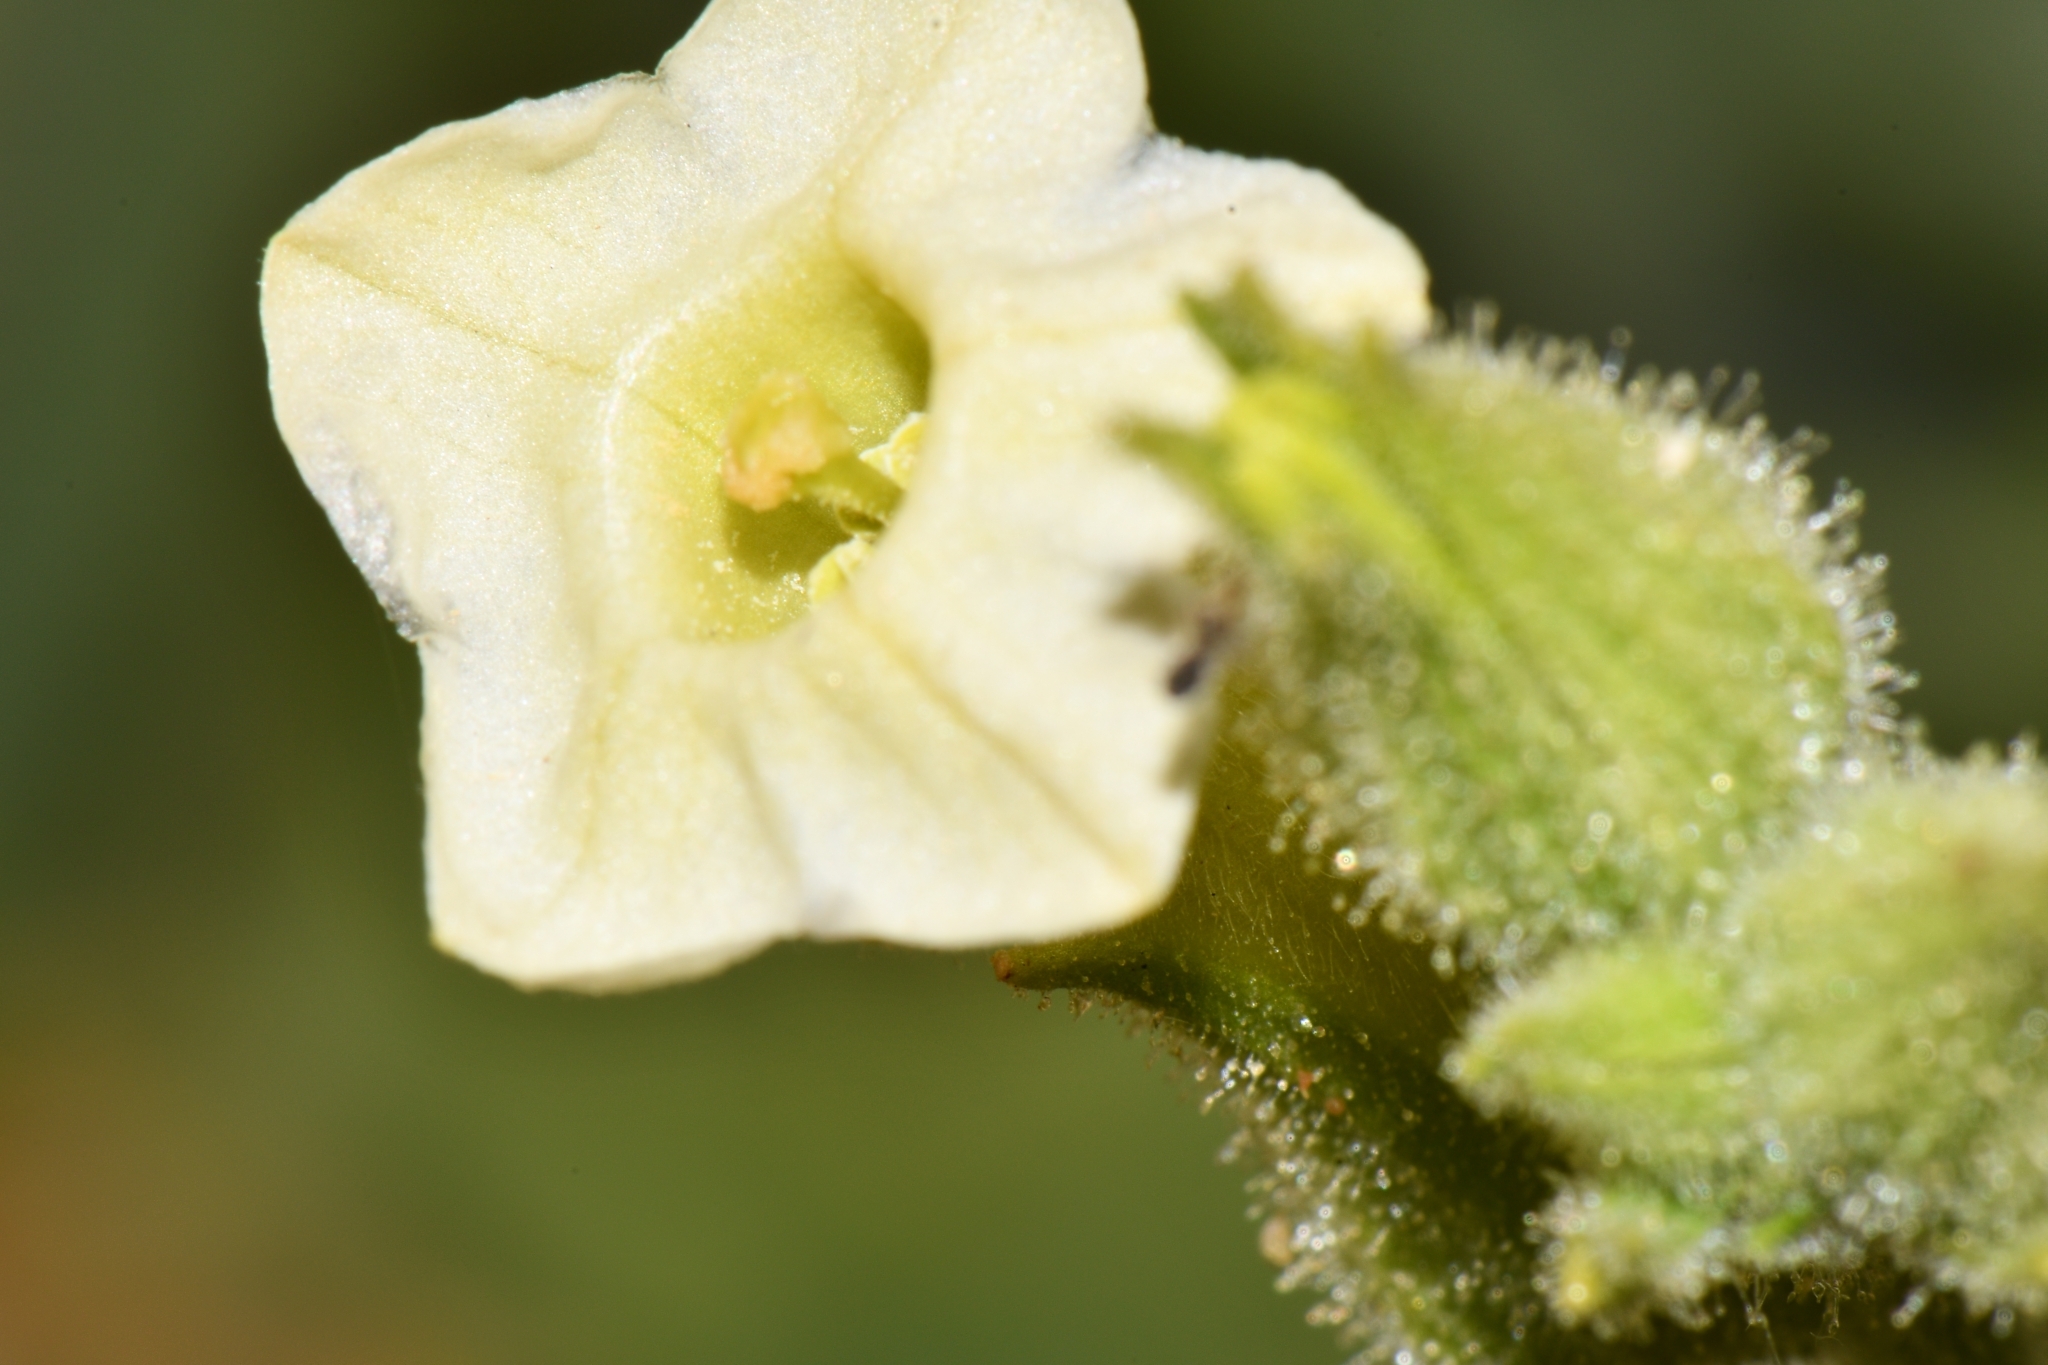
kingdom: Plantae
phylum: Tracheophyta
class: Magnoliopsida
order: Solanales
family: Solanaceae
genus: Nicotiana
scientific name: Nicotiana obtusifolia
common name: Desert tobacco
